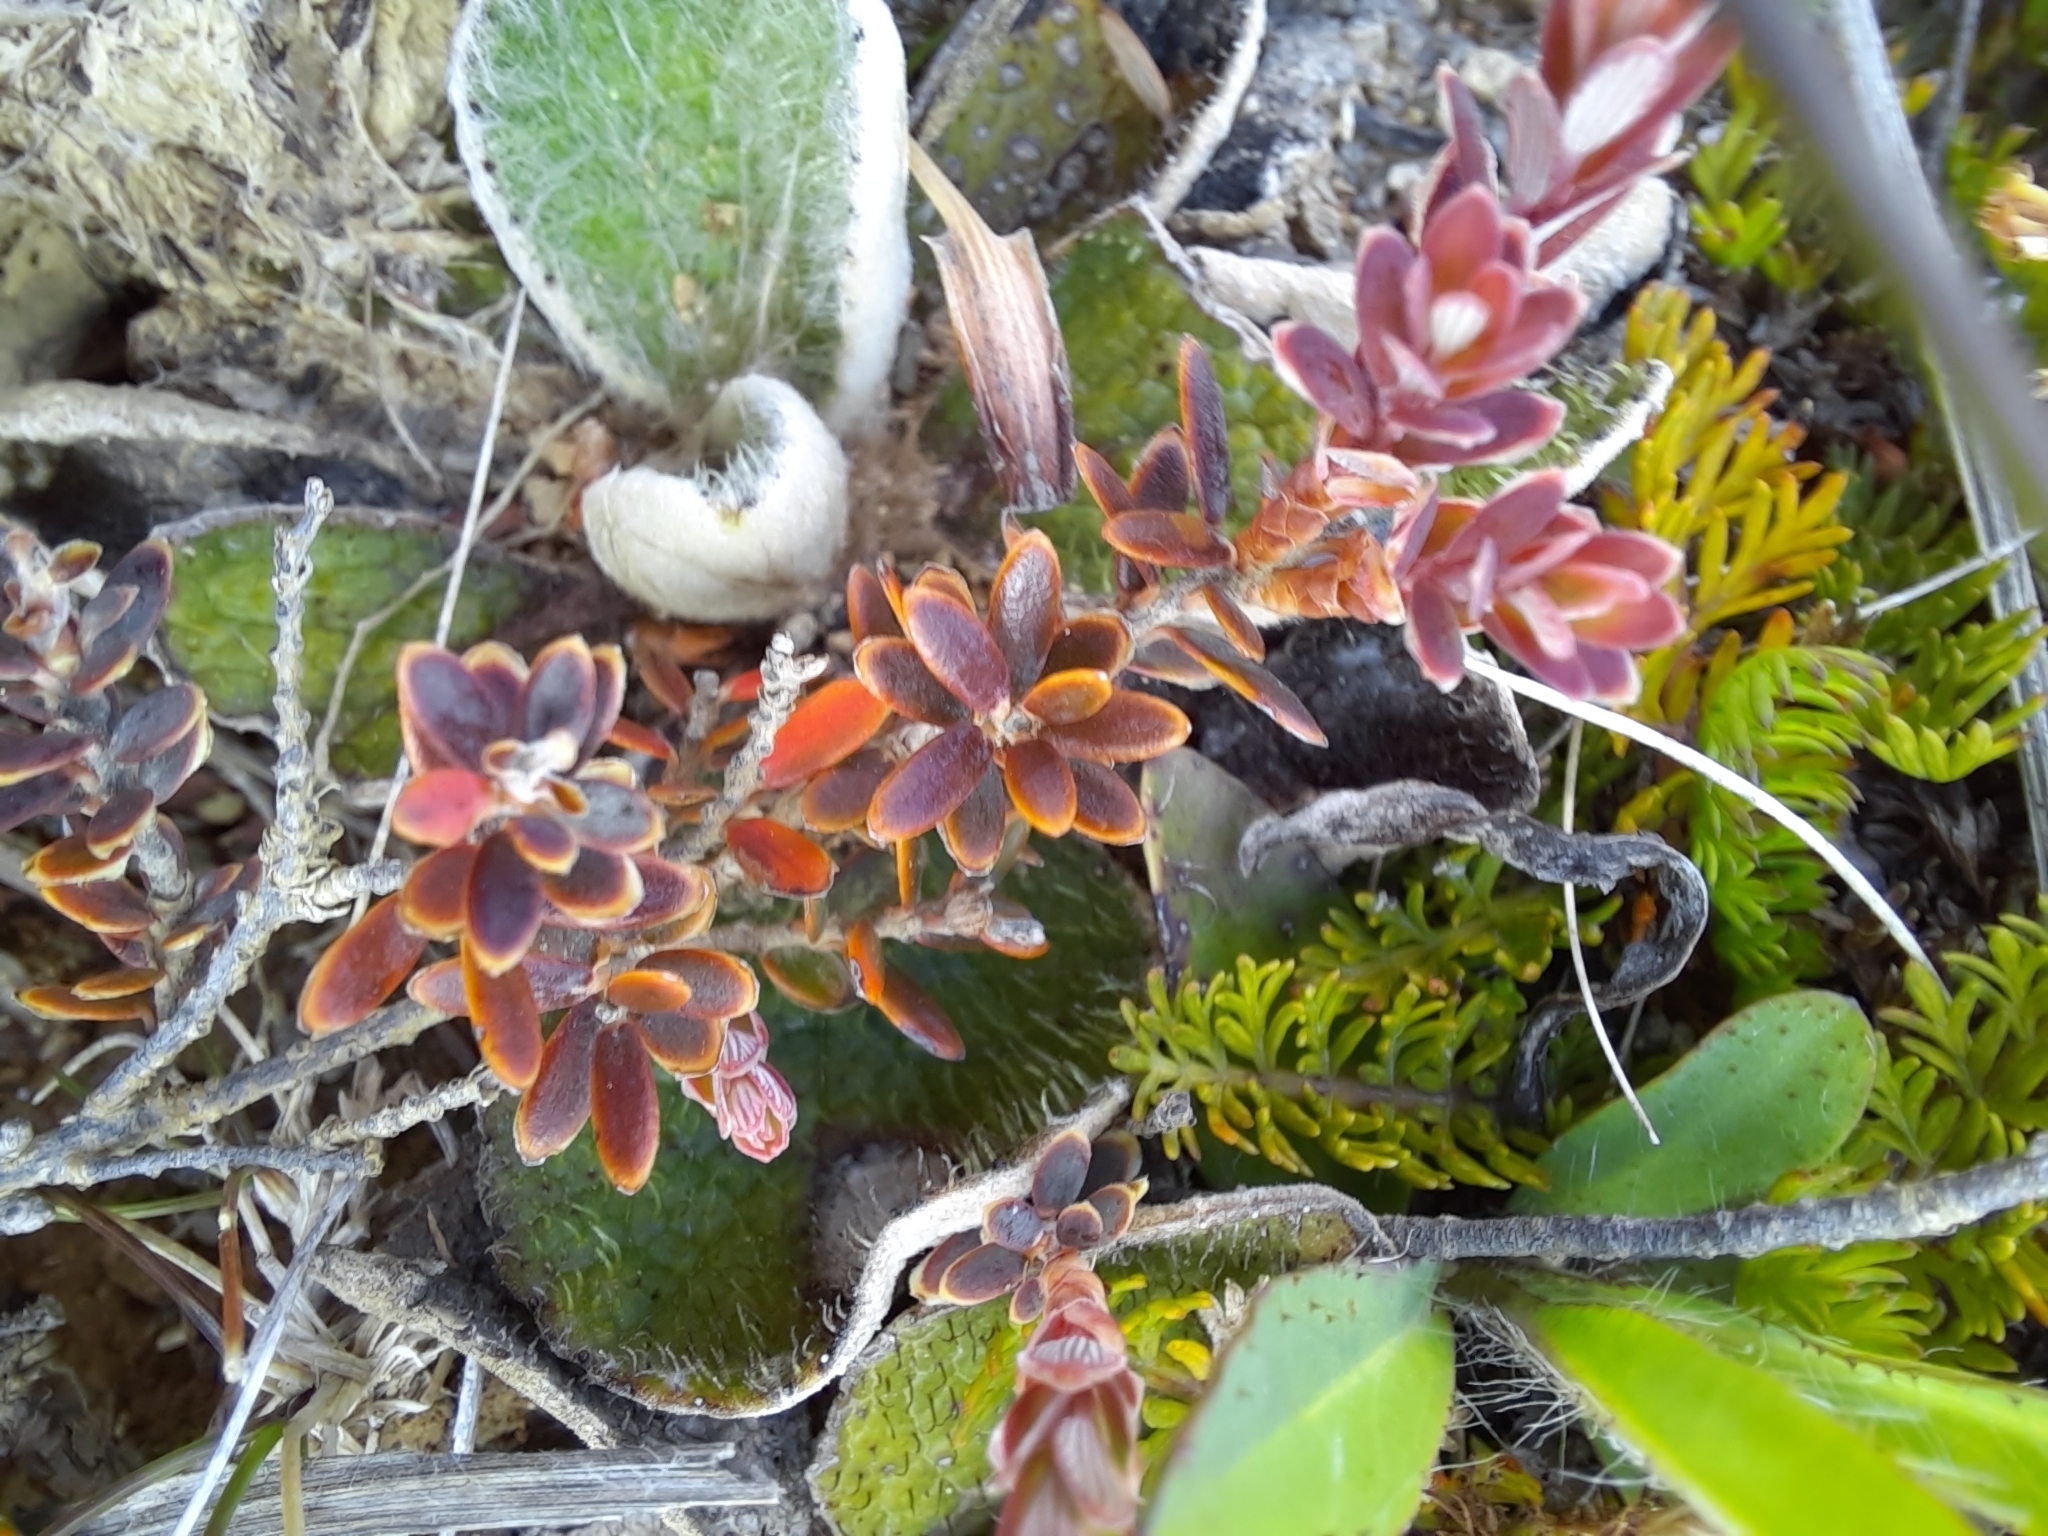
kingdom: Plantae
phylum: Tracheophyta
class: Magnoliopsida
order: Ericales
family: Ericaceae
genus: Acrothamnus
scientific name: Acrothamnus colensoi
